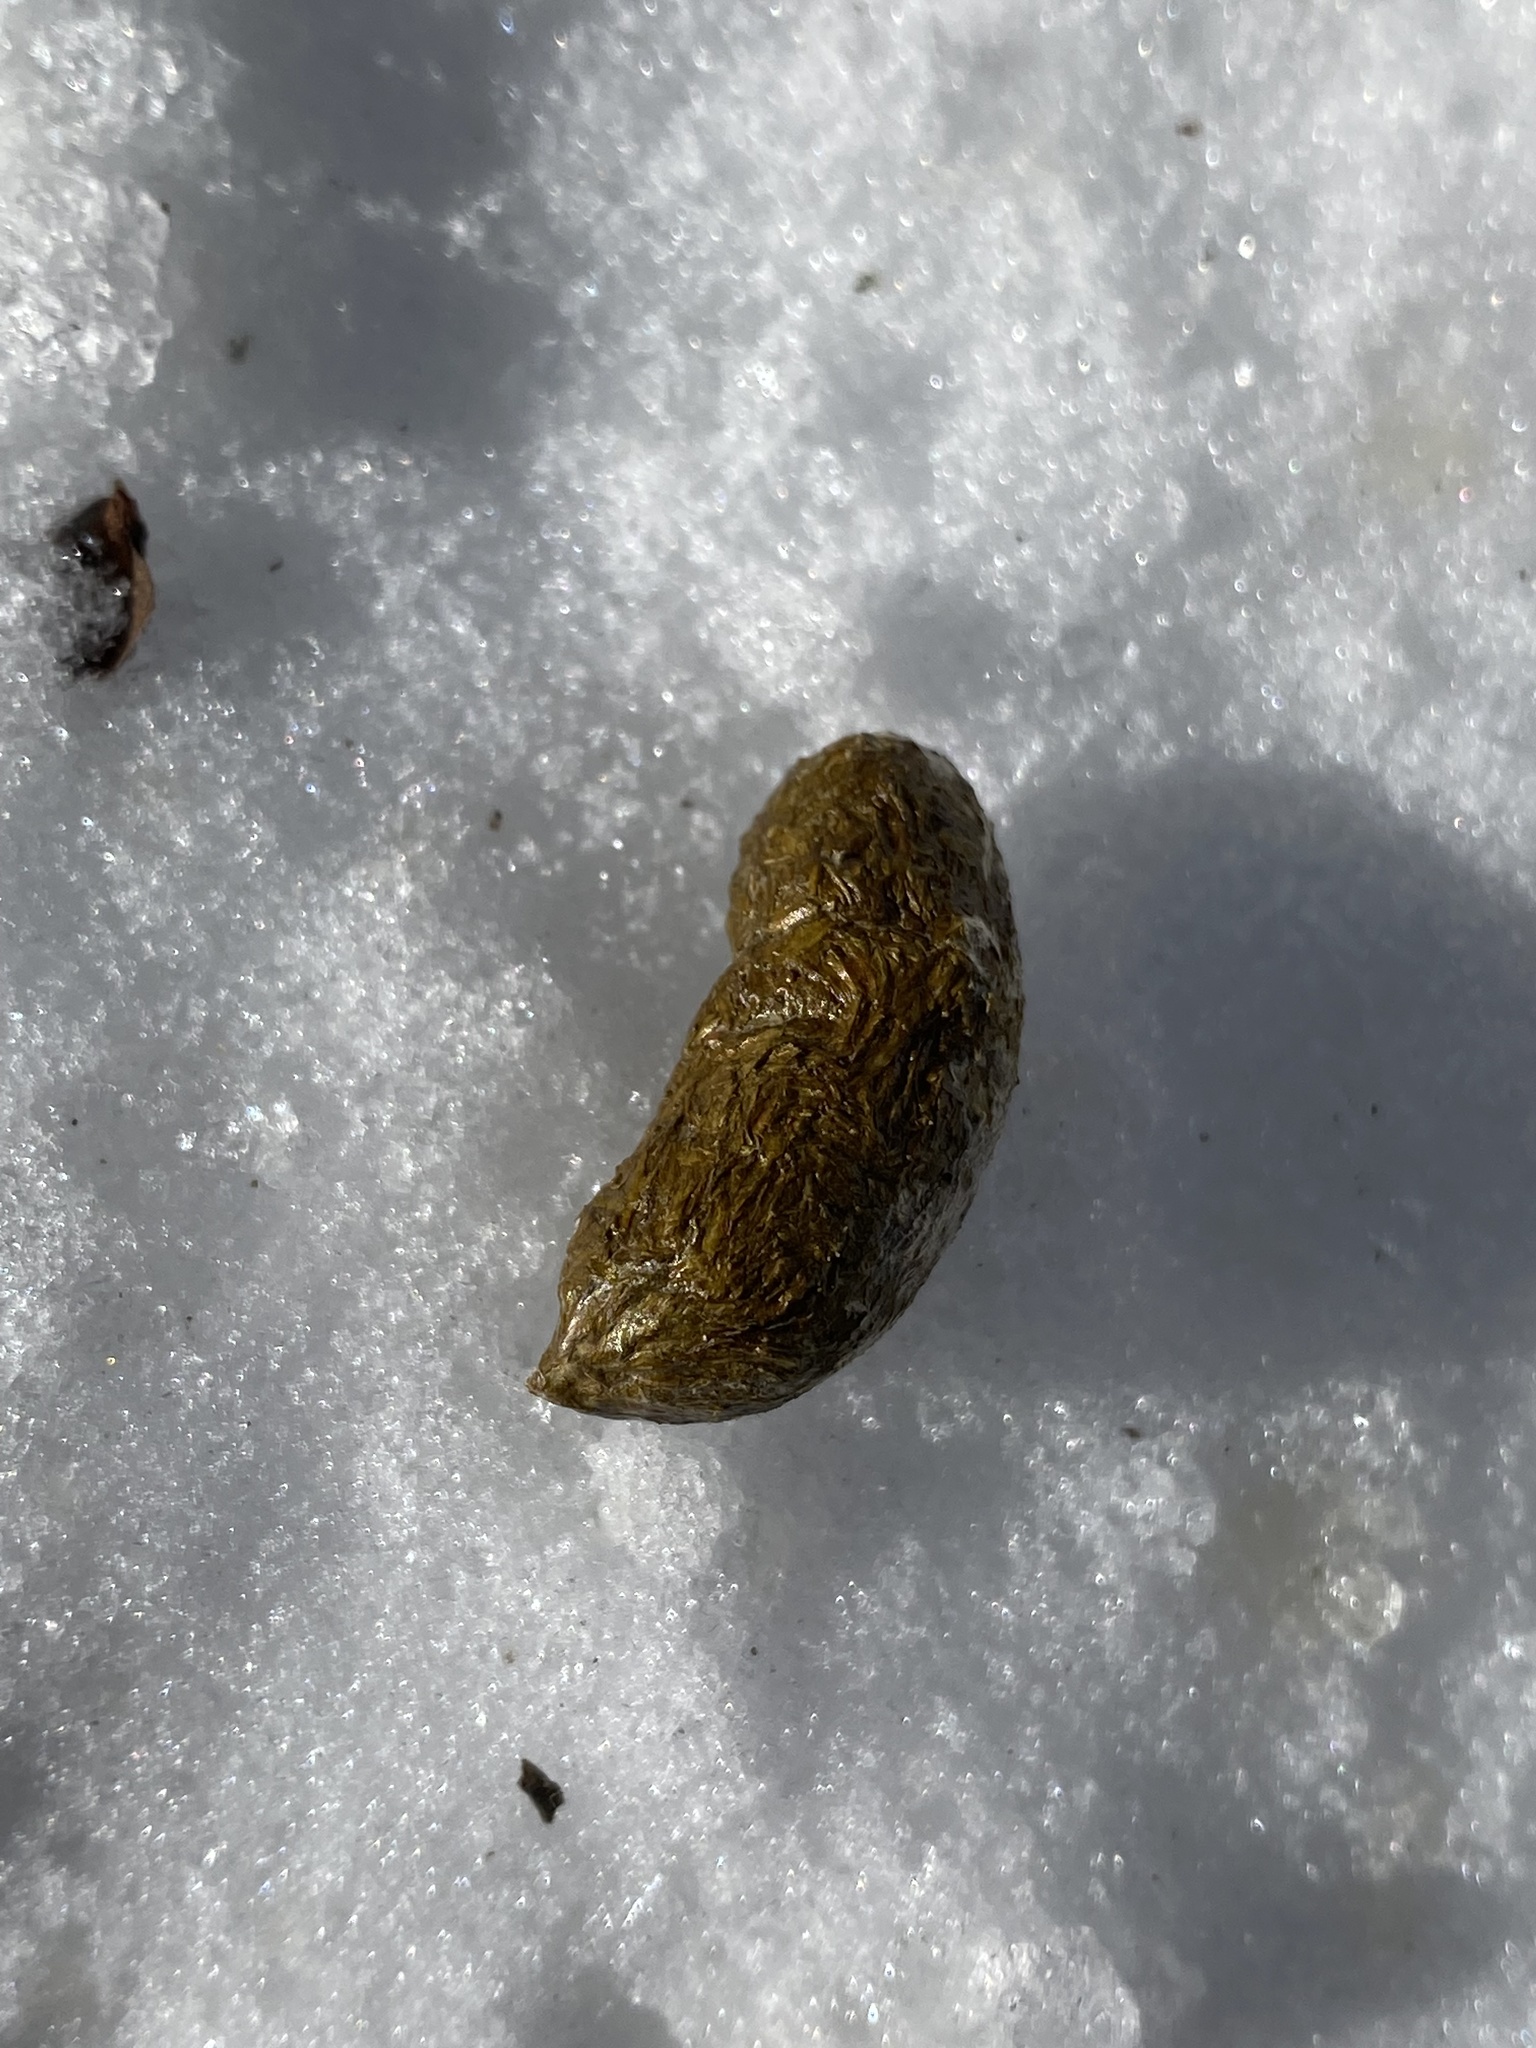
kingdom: Animalia
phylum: Chordata
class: Mammalia
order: Rodentia
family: Erethizontidae
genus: Erethizon
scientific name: Erethizon dorsatus
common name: North american porcupine
